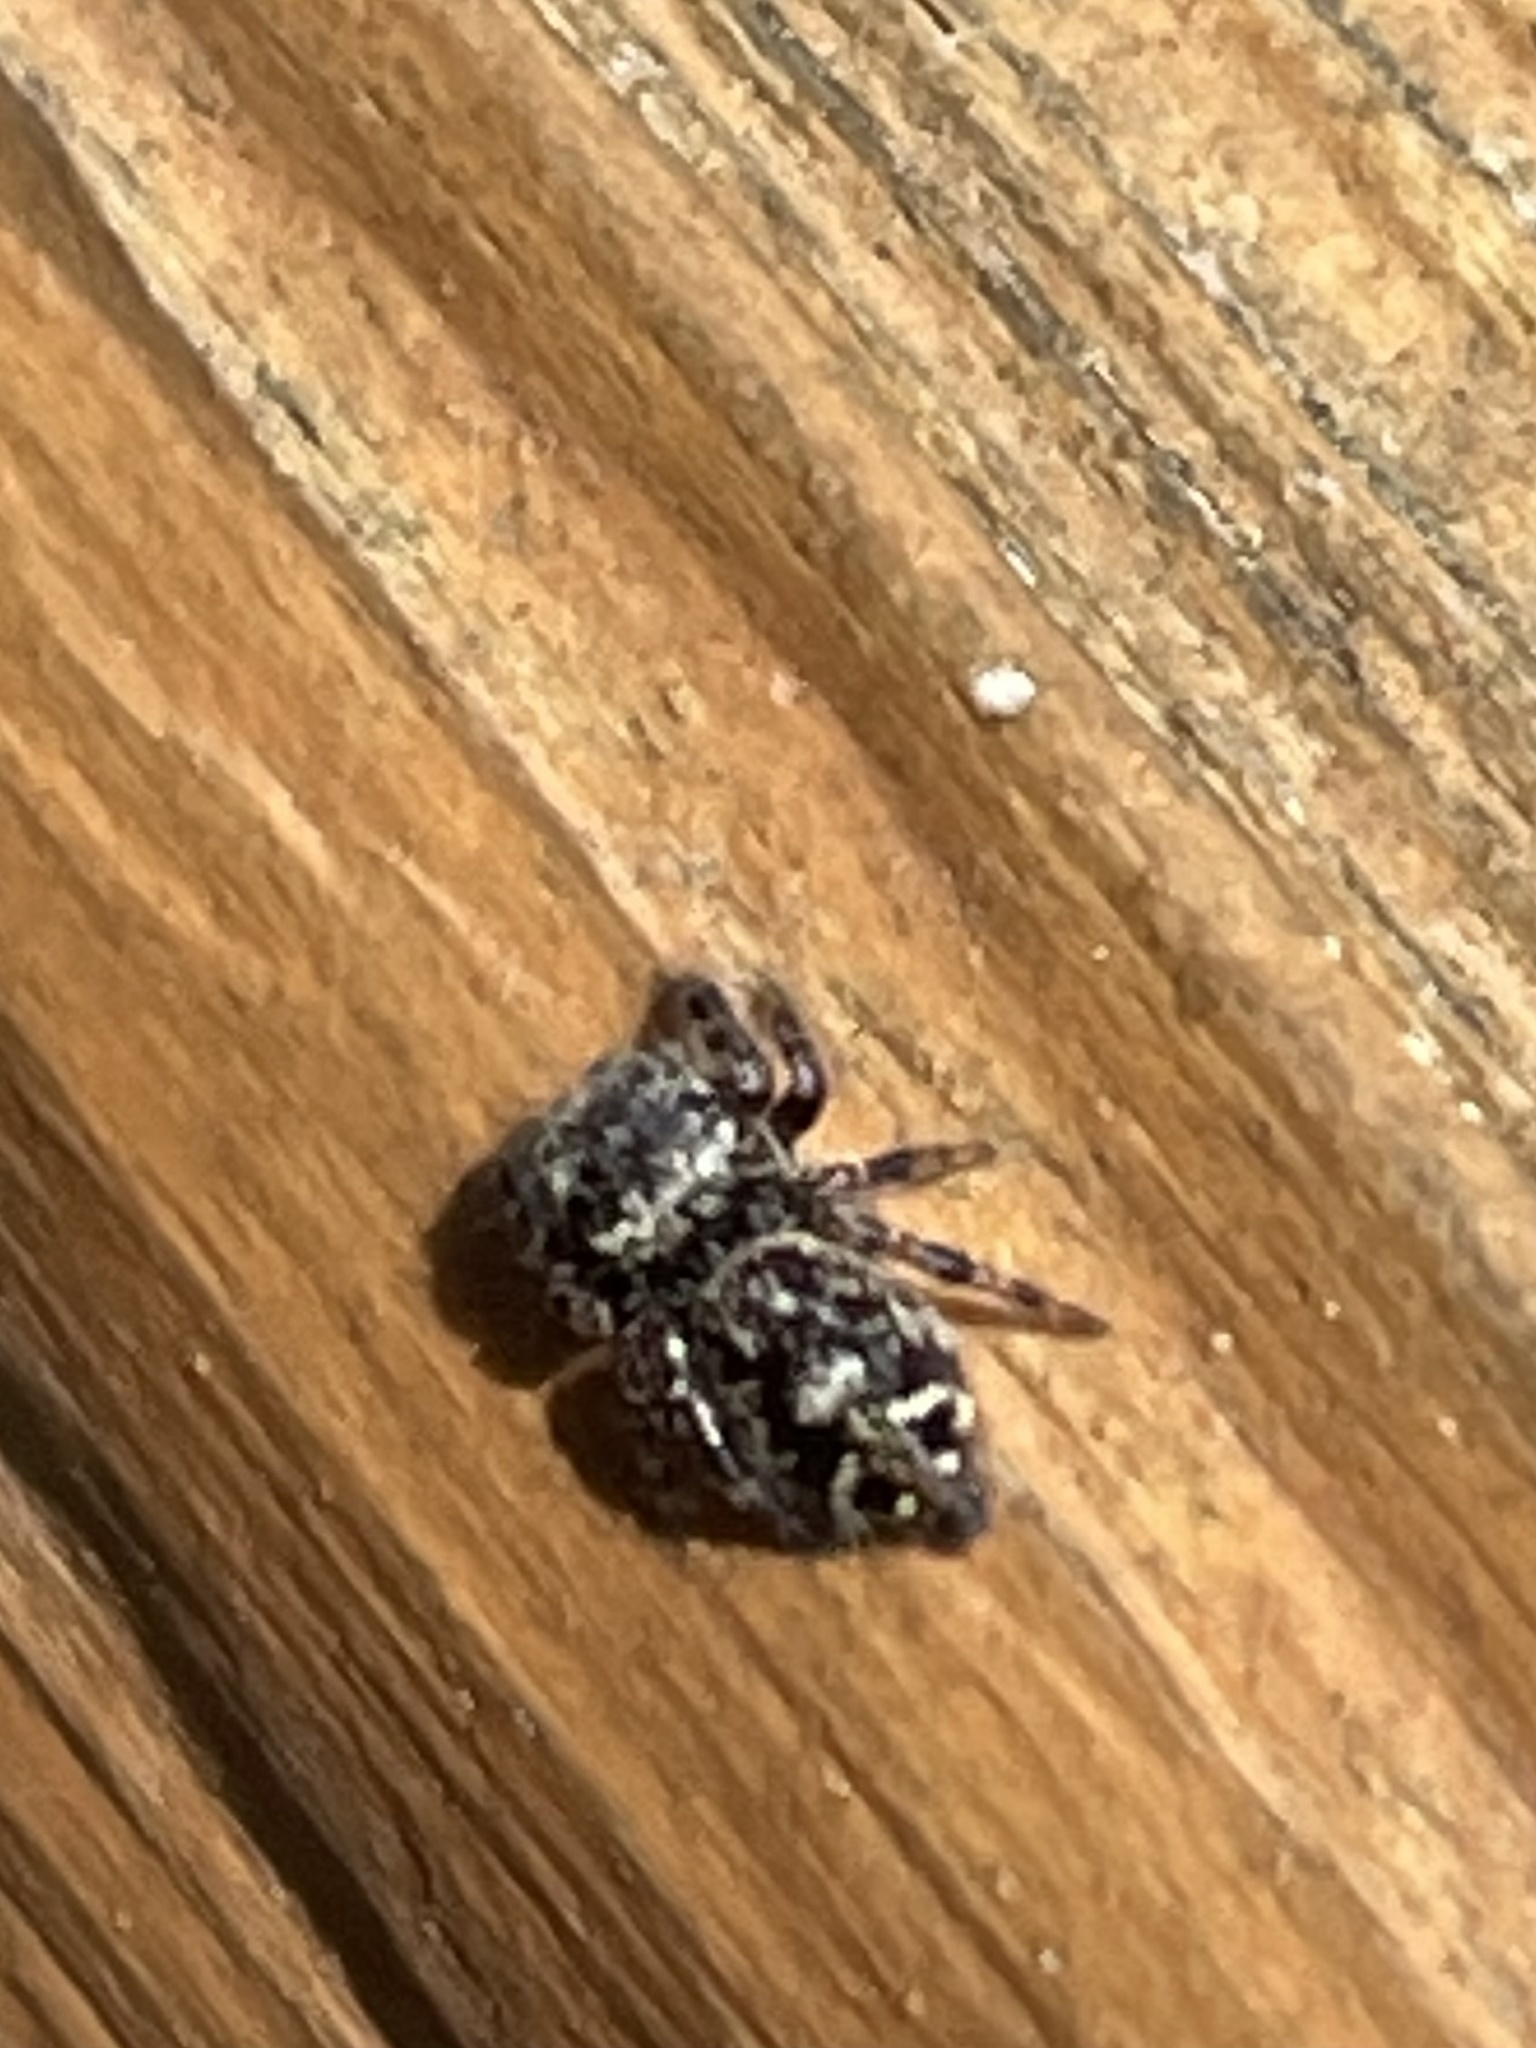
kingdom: Animalia
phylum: Arthropoda
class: Arachnida
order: Araneae
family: Salticidae
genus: Phidippus
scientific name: Phidippus putnami
